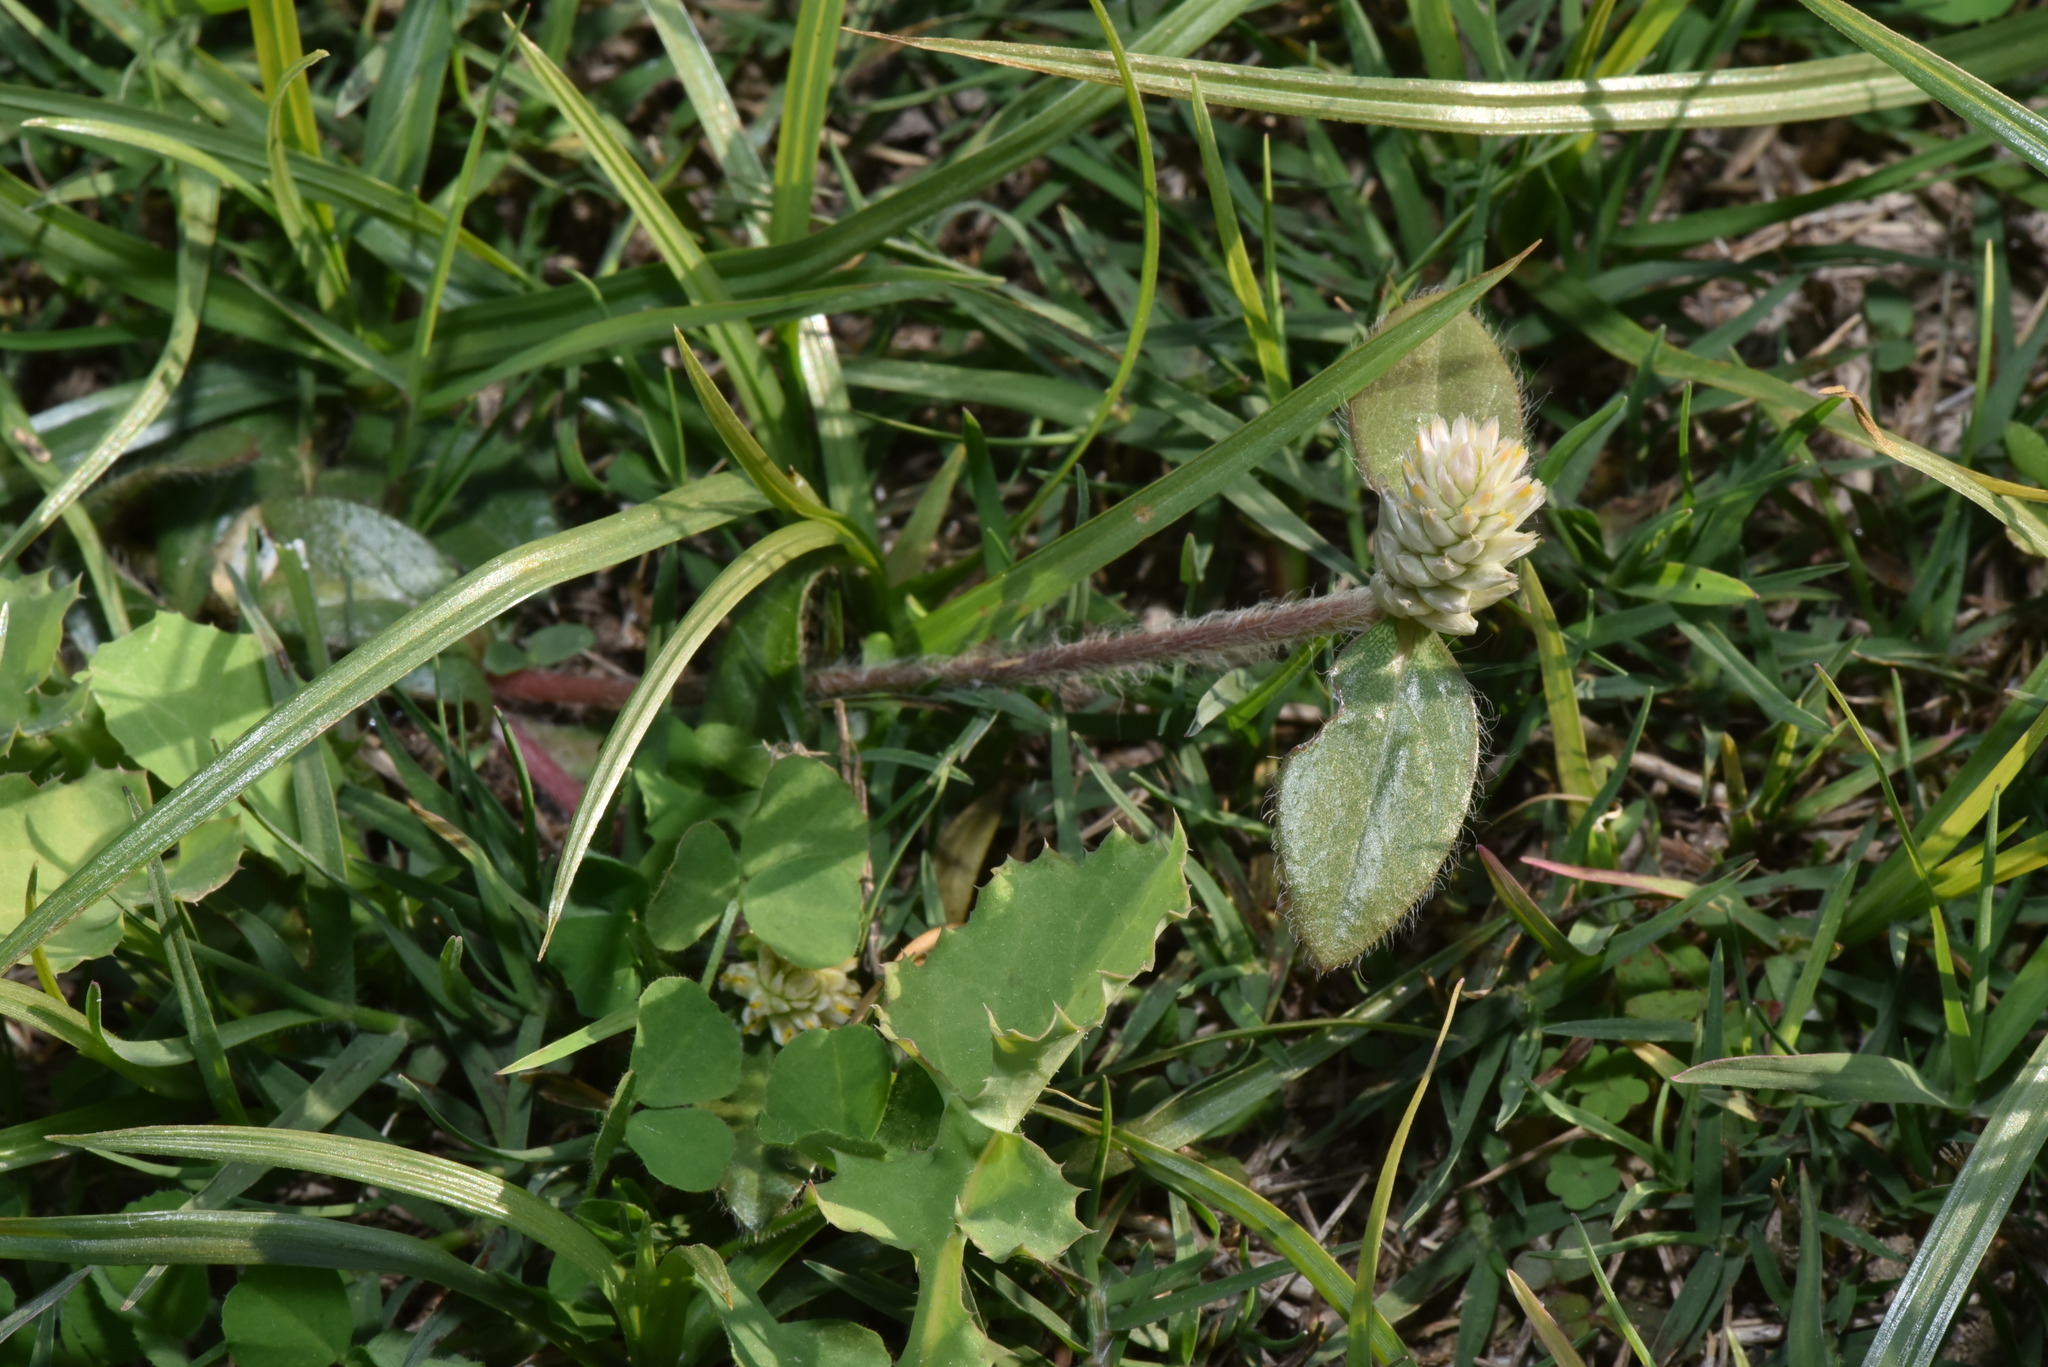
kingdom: Plantae
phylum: Tracheophyta
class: Magnoliopsida
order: Caryophyllales
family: Amaranthaceae
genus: Gomphrena
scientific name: Gomphrena celosioides
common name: Gomphrena-weed
